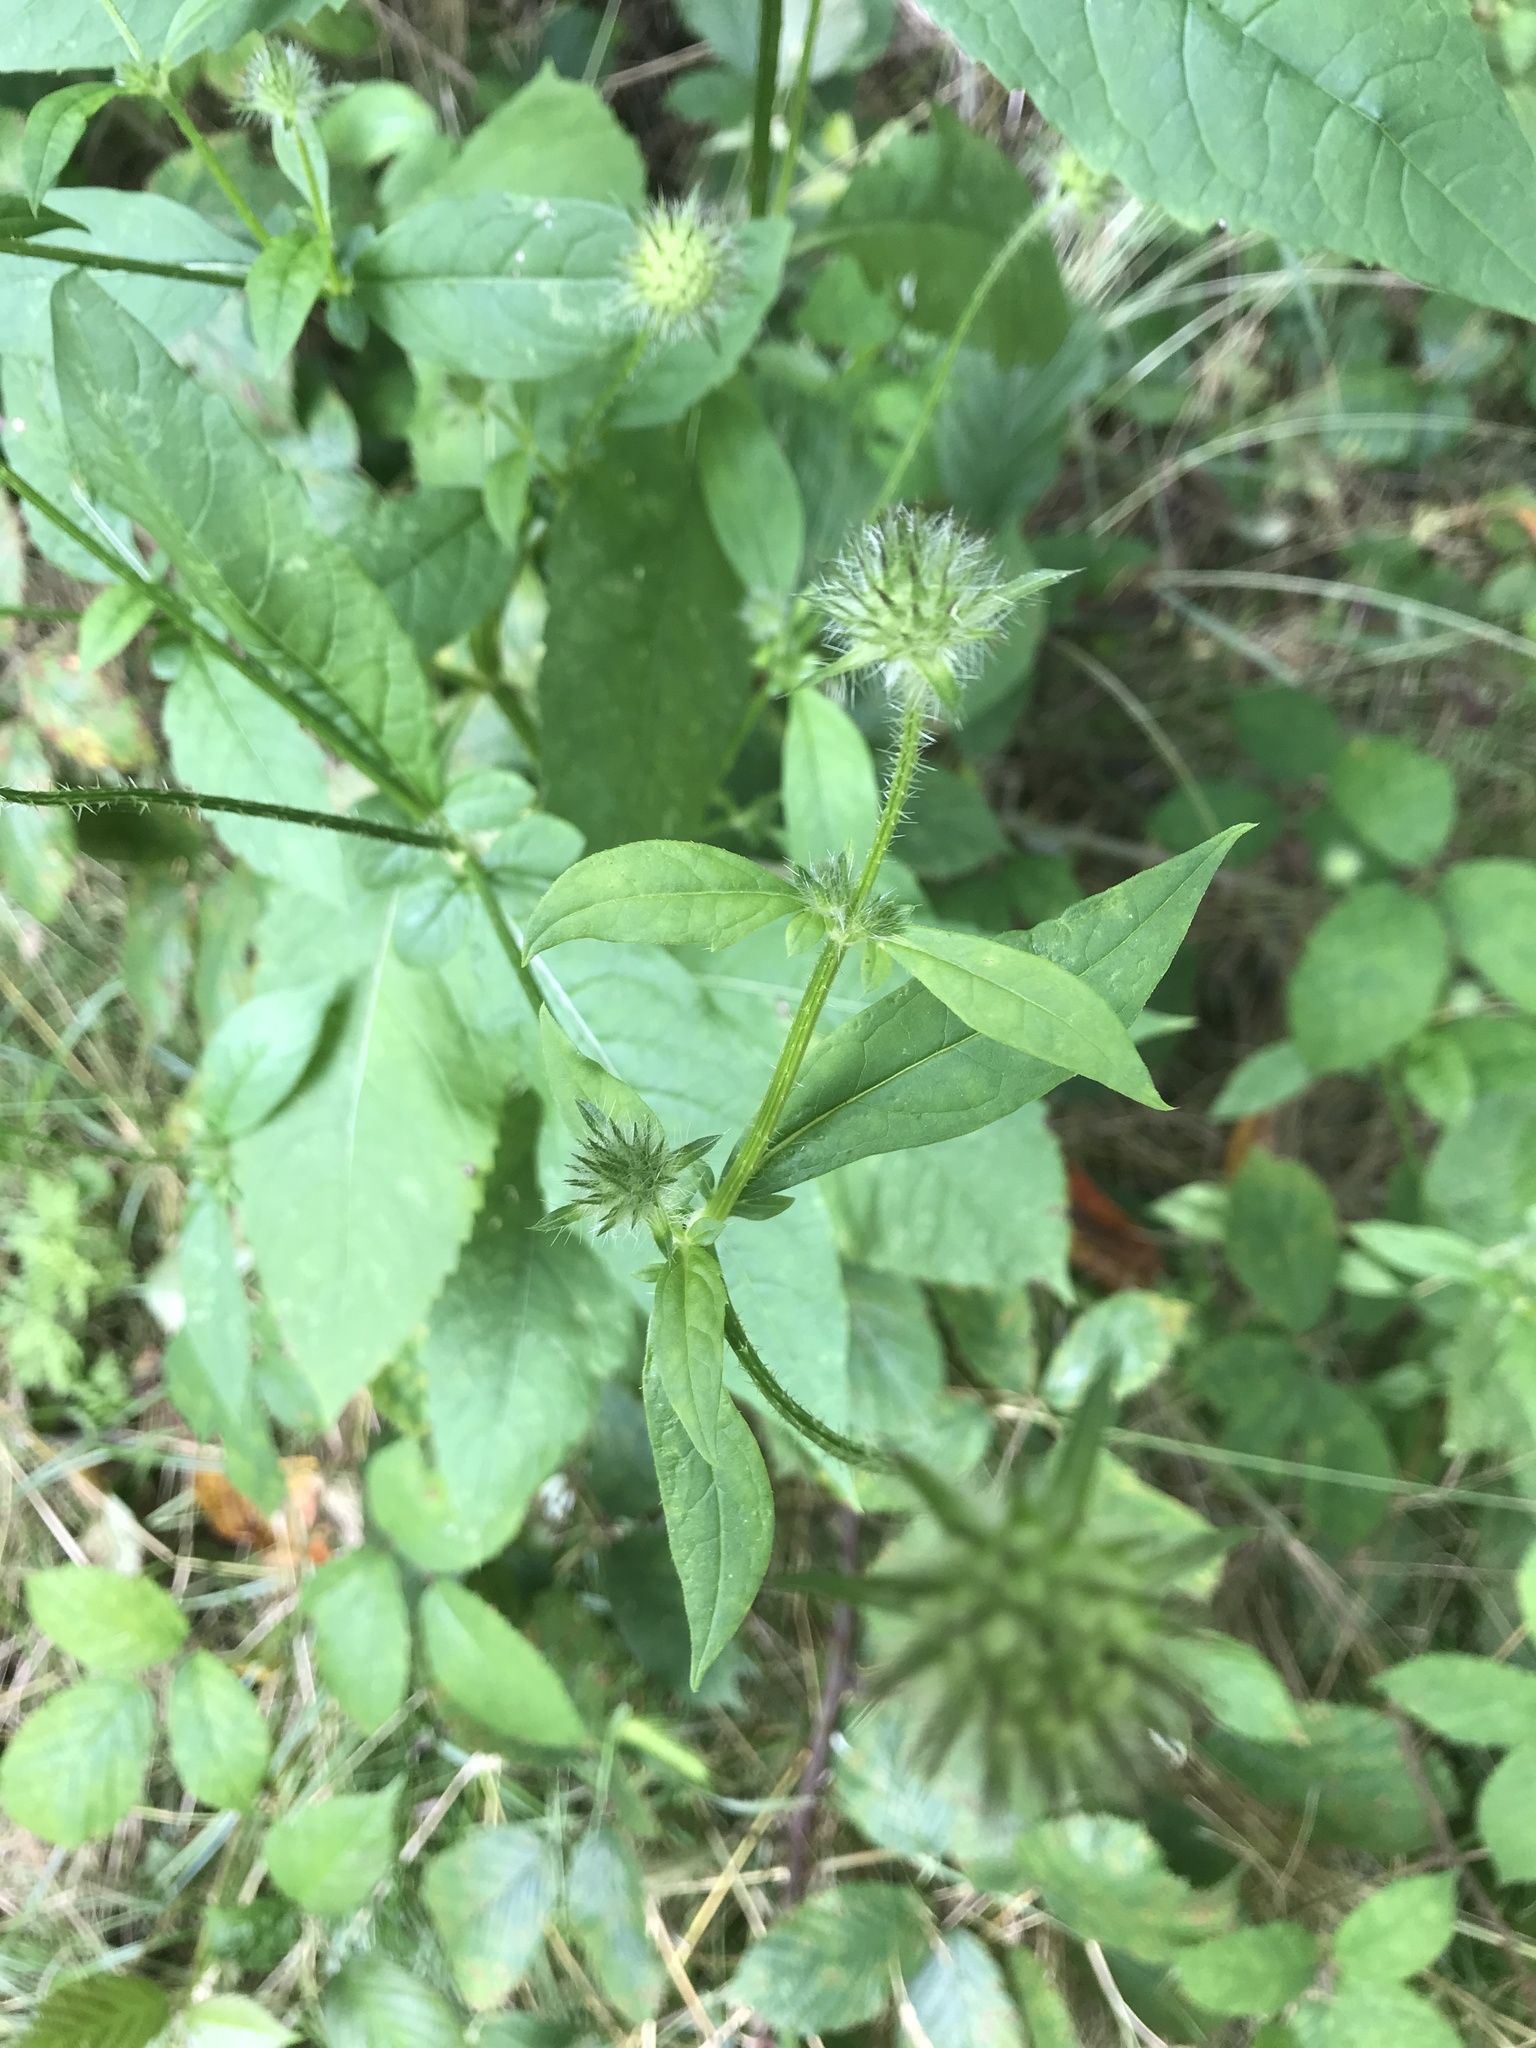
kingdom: Plantae
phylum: Tracheophyta
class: Magnoliopsida
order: Dipsacales
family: Caprifoliaceae
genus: Dipsacus
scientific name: Dipsacus pilosus
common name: Small teasel
